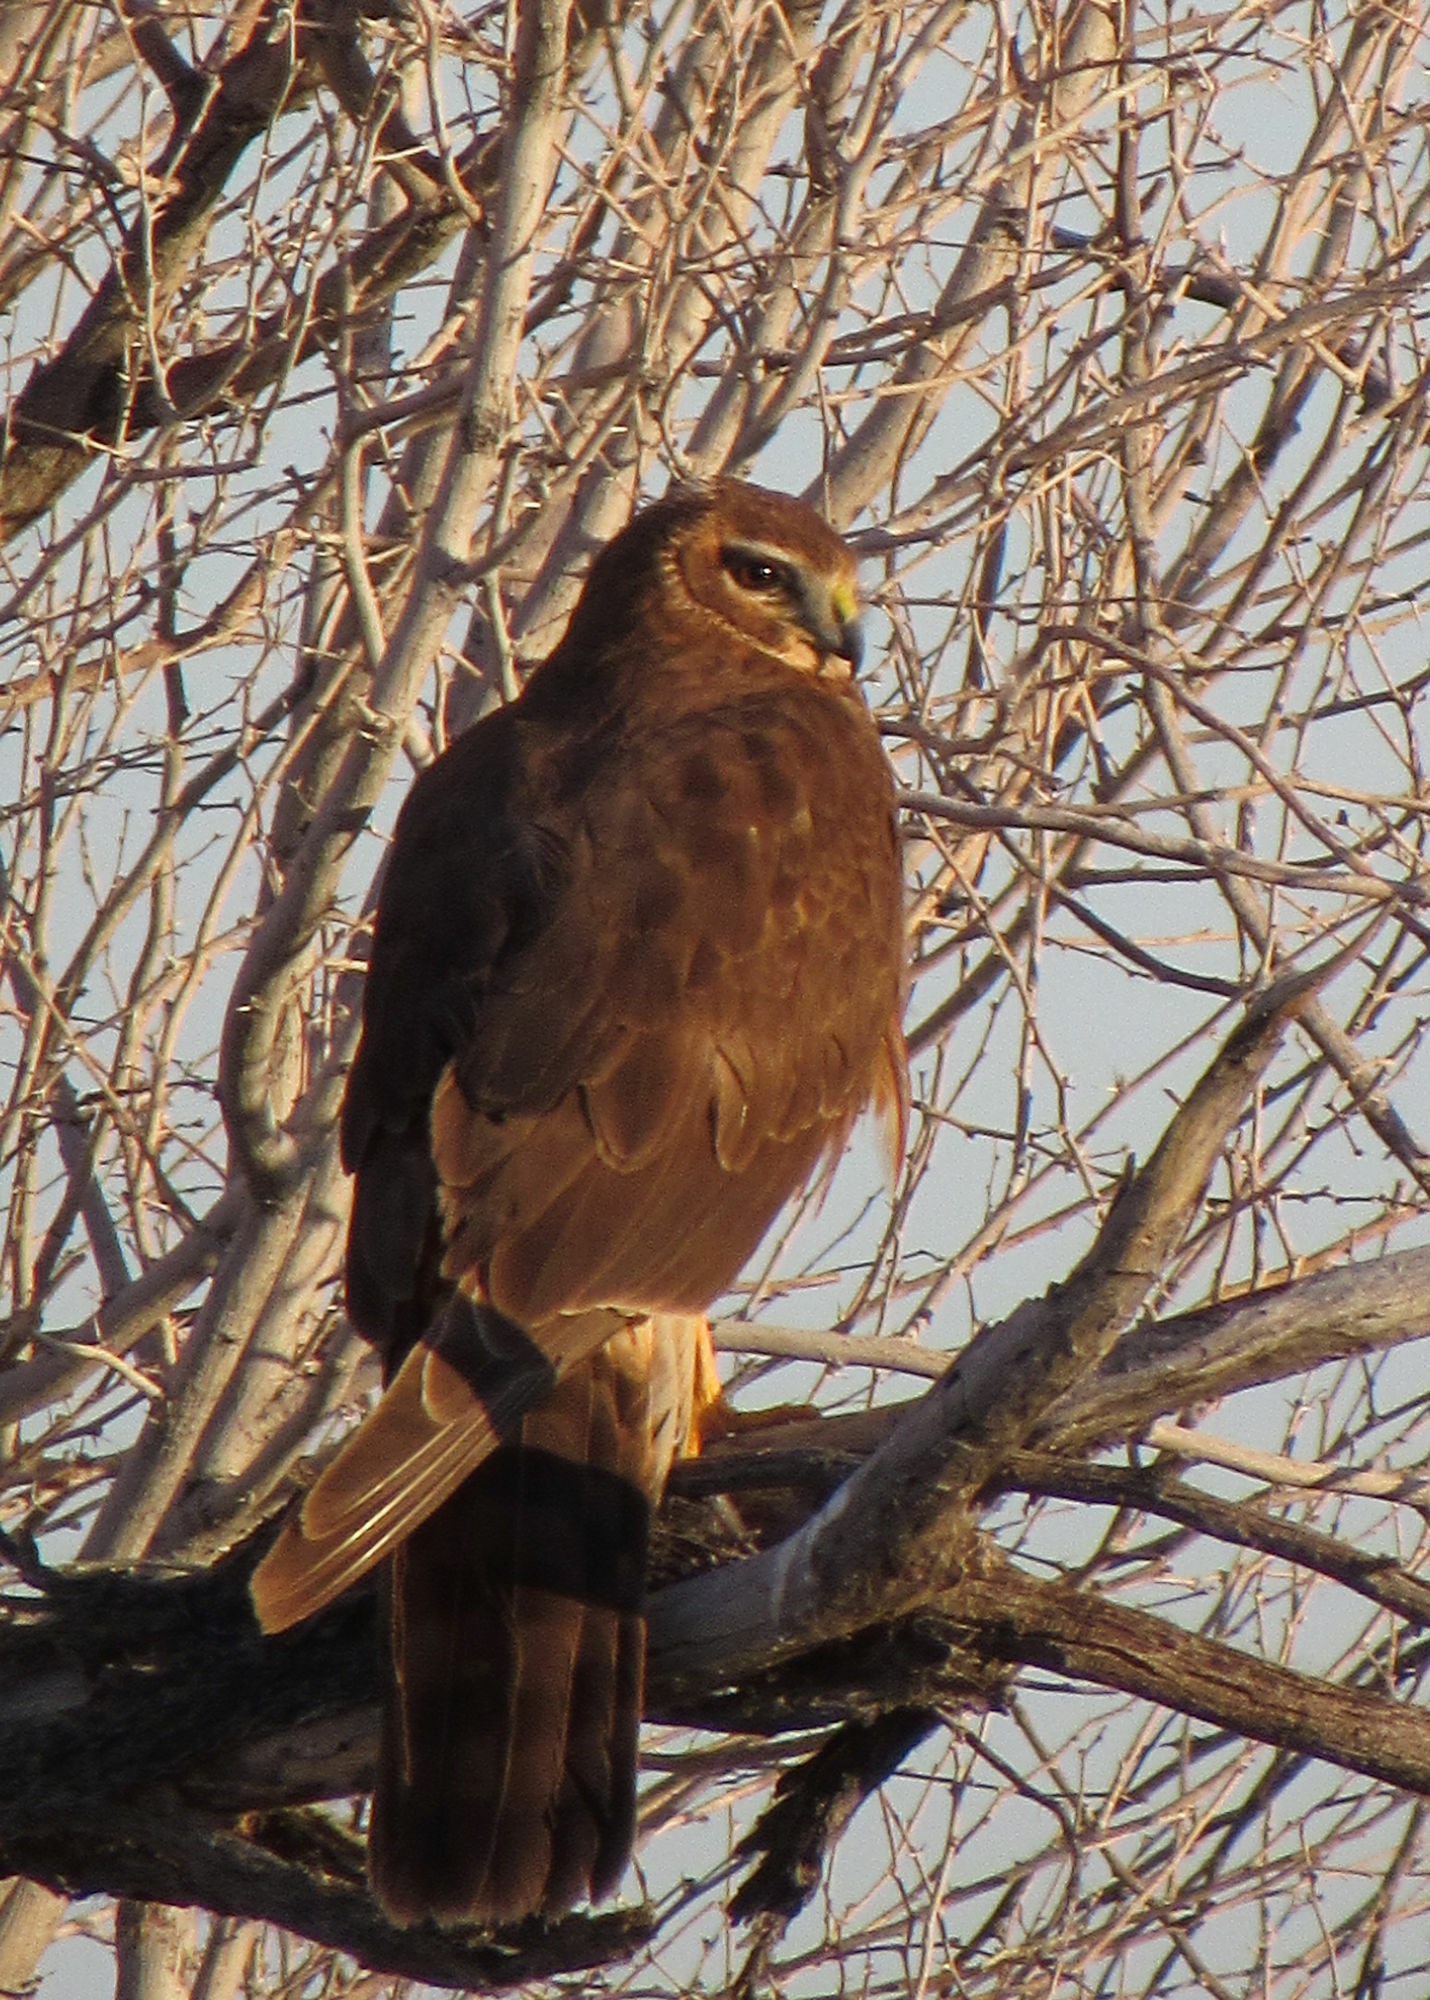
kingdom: Animalia
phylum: Chordata
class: Aves
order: Accipitriformes
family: Accipitridae
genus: Circus
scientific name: Circus cyaneus
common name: Hen harrier
